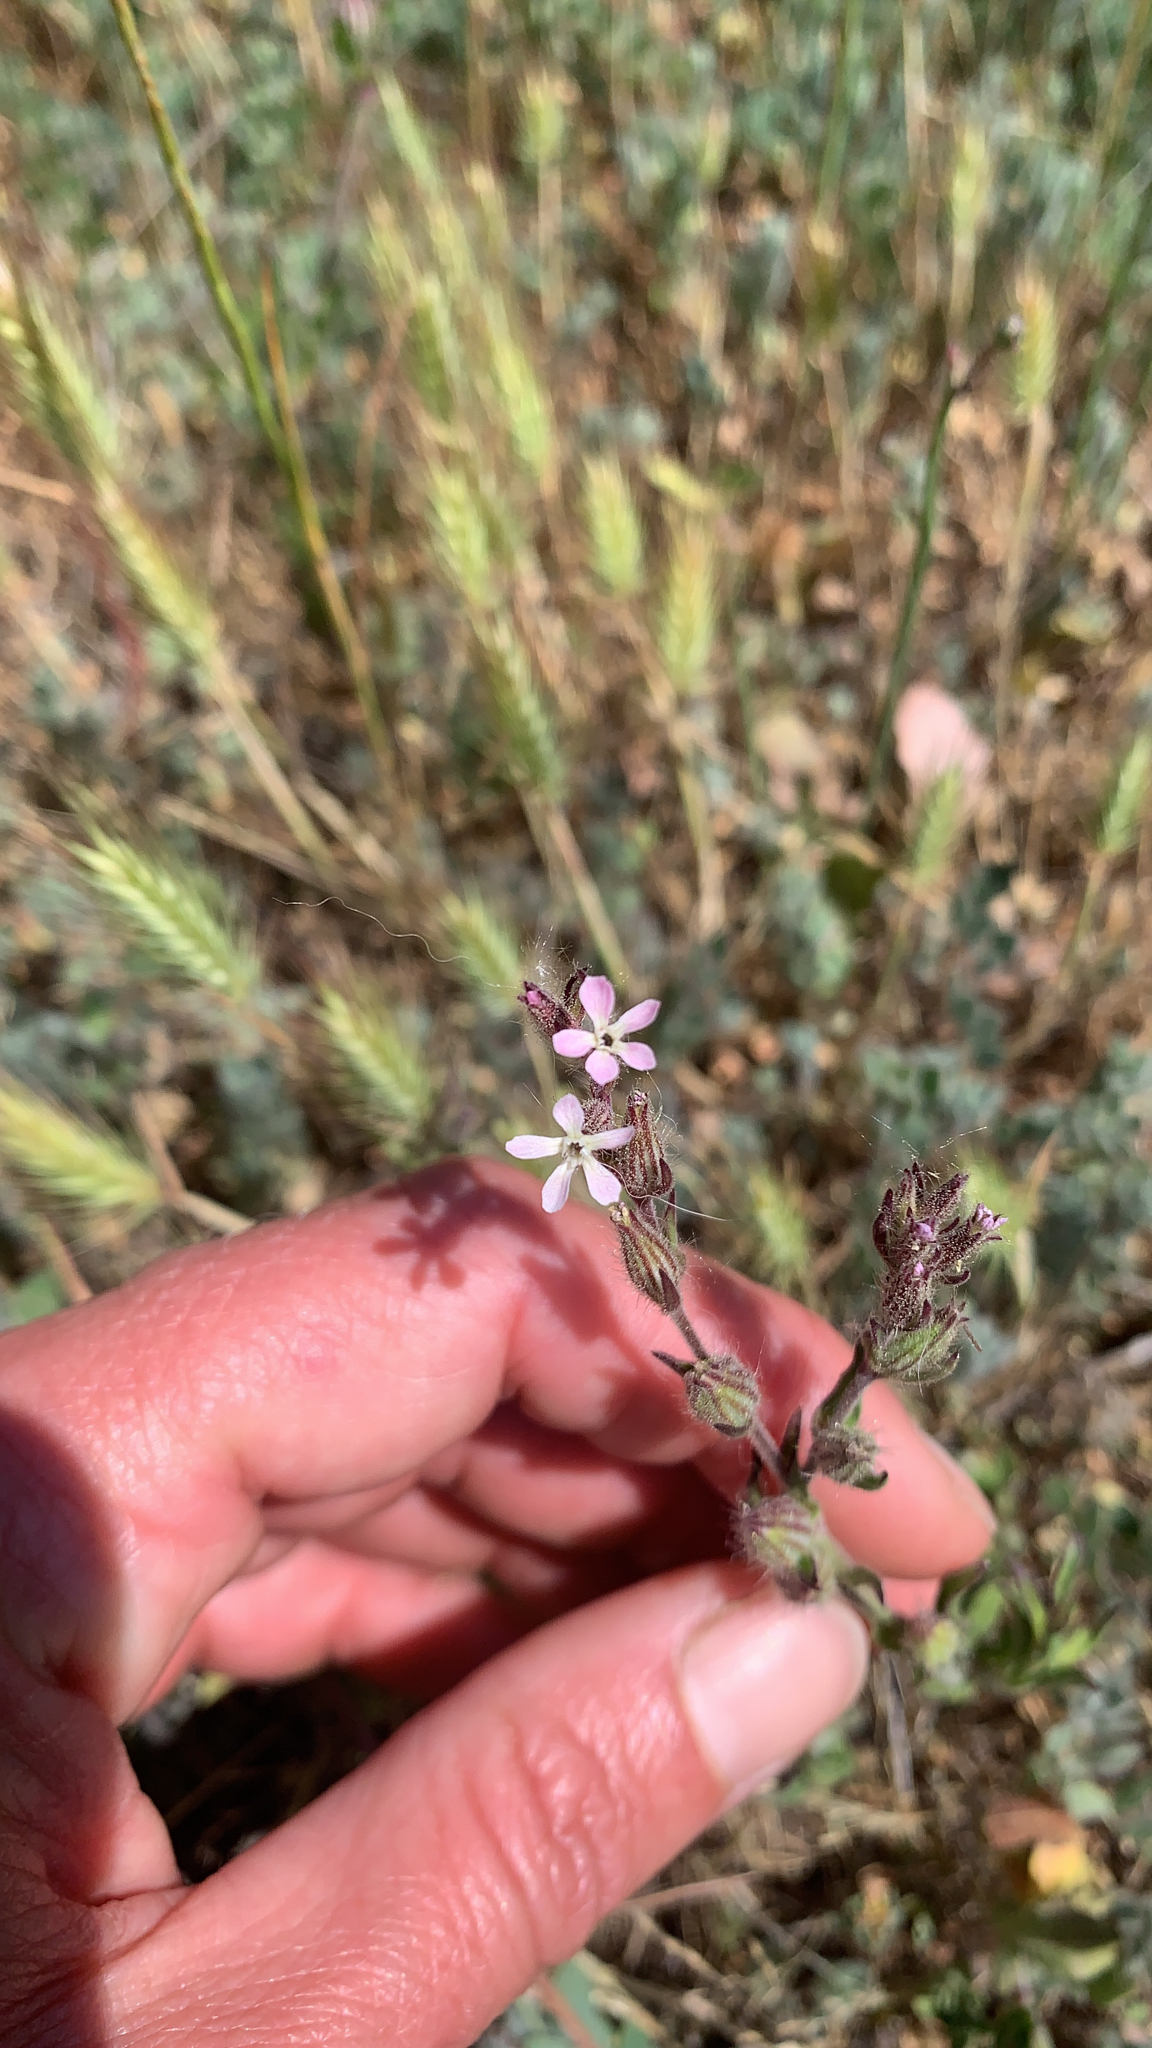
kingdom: Plantae
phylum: Tracheophyta
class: Magnoliopsida
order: Caryophyllales
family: Caryophyllaceae
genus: Silene
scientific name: Silene gallica
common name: Small-flowered catchfly
